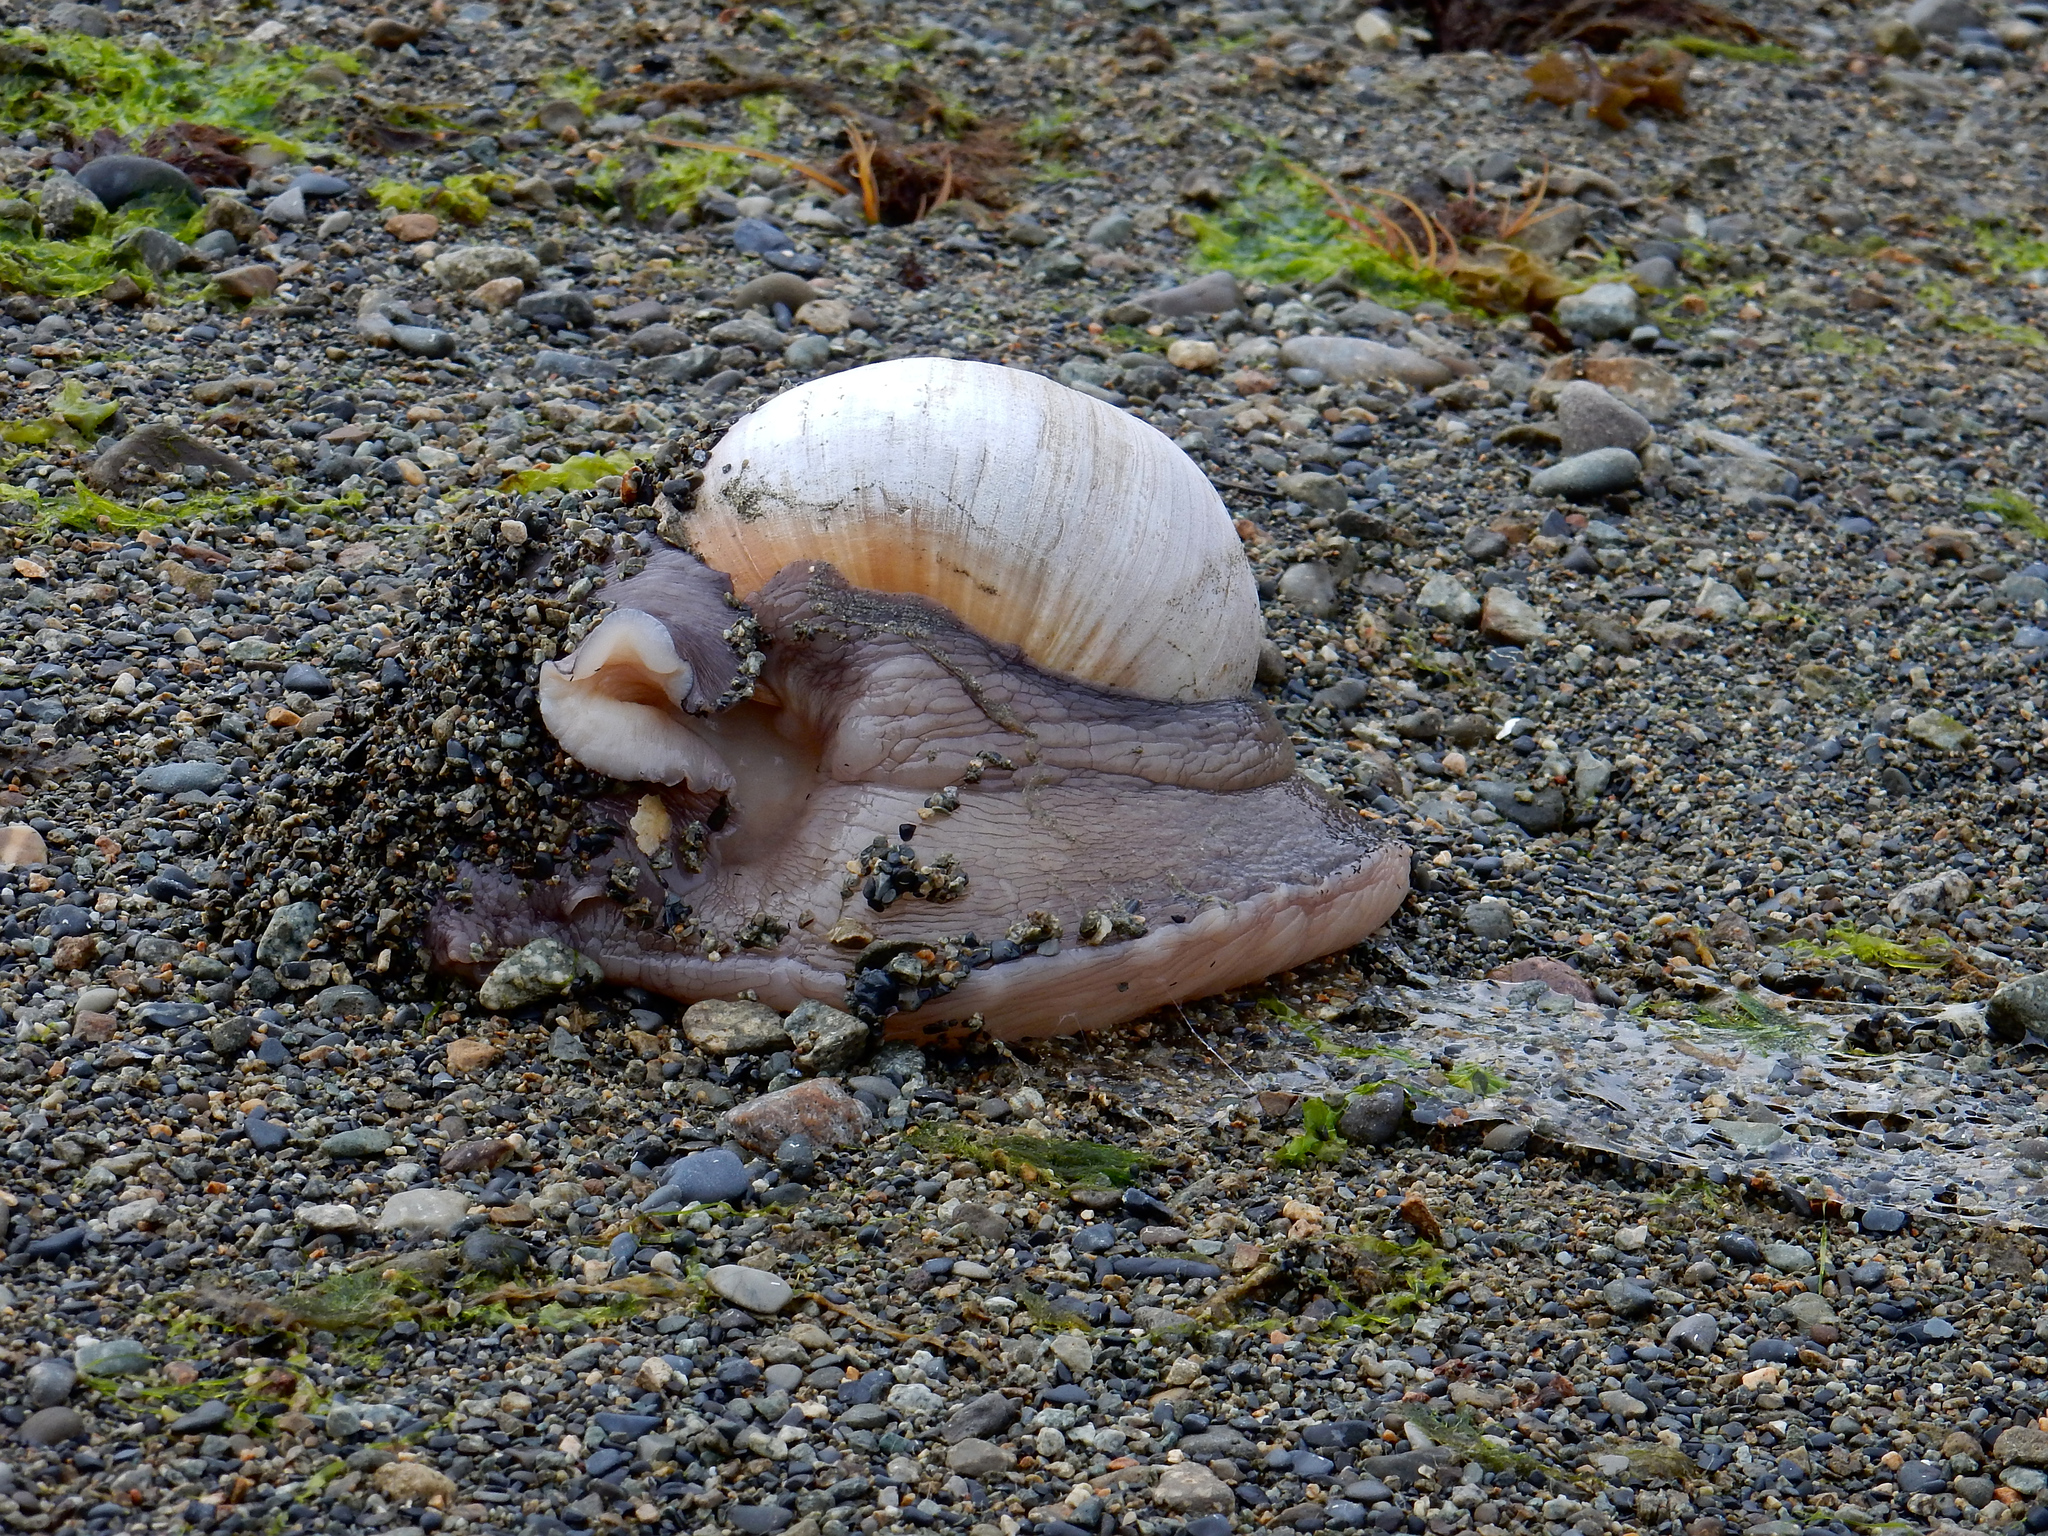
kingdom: Animalia
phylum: Mollusca
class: Gastropoda
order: Littorinimorpha
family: Naticidae
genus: Neverita
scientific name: Neverita lewisii
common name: Lewis' moonsnail
